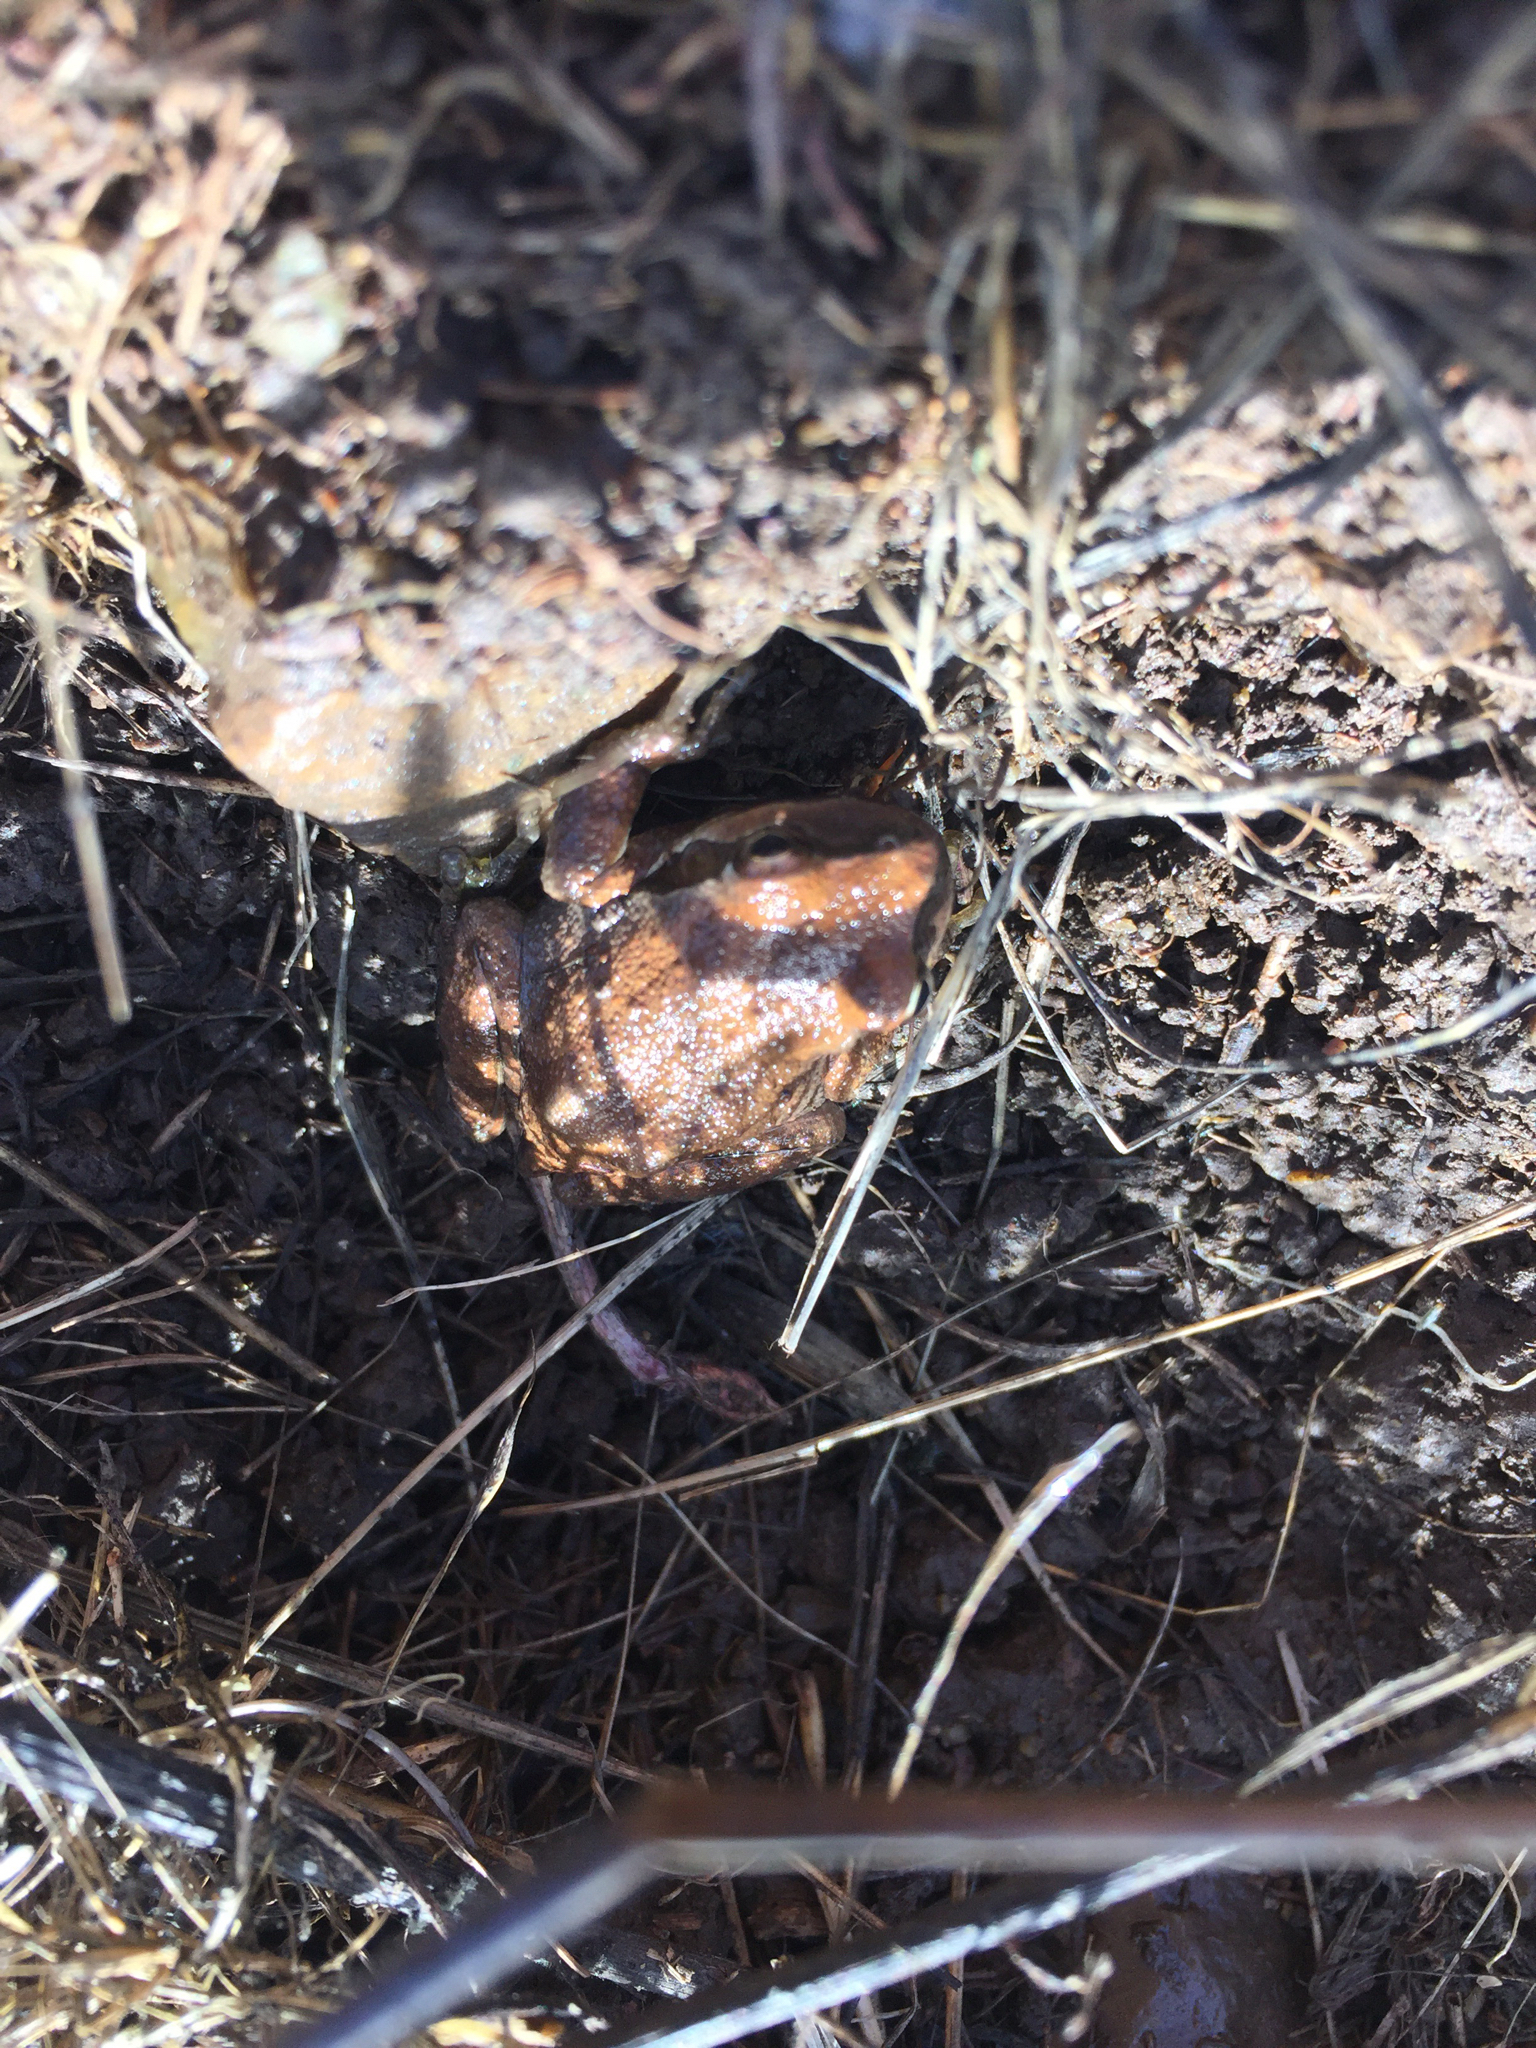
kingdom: Animalia
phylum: Chordata
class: Amphibia
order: Anura
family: Hylidae
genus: Pseudacris
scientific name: Pseudacris regilla
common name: Pacific chorus frog
